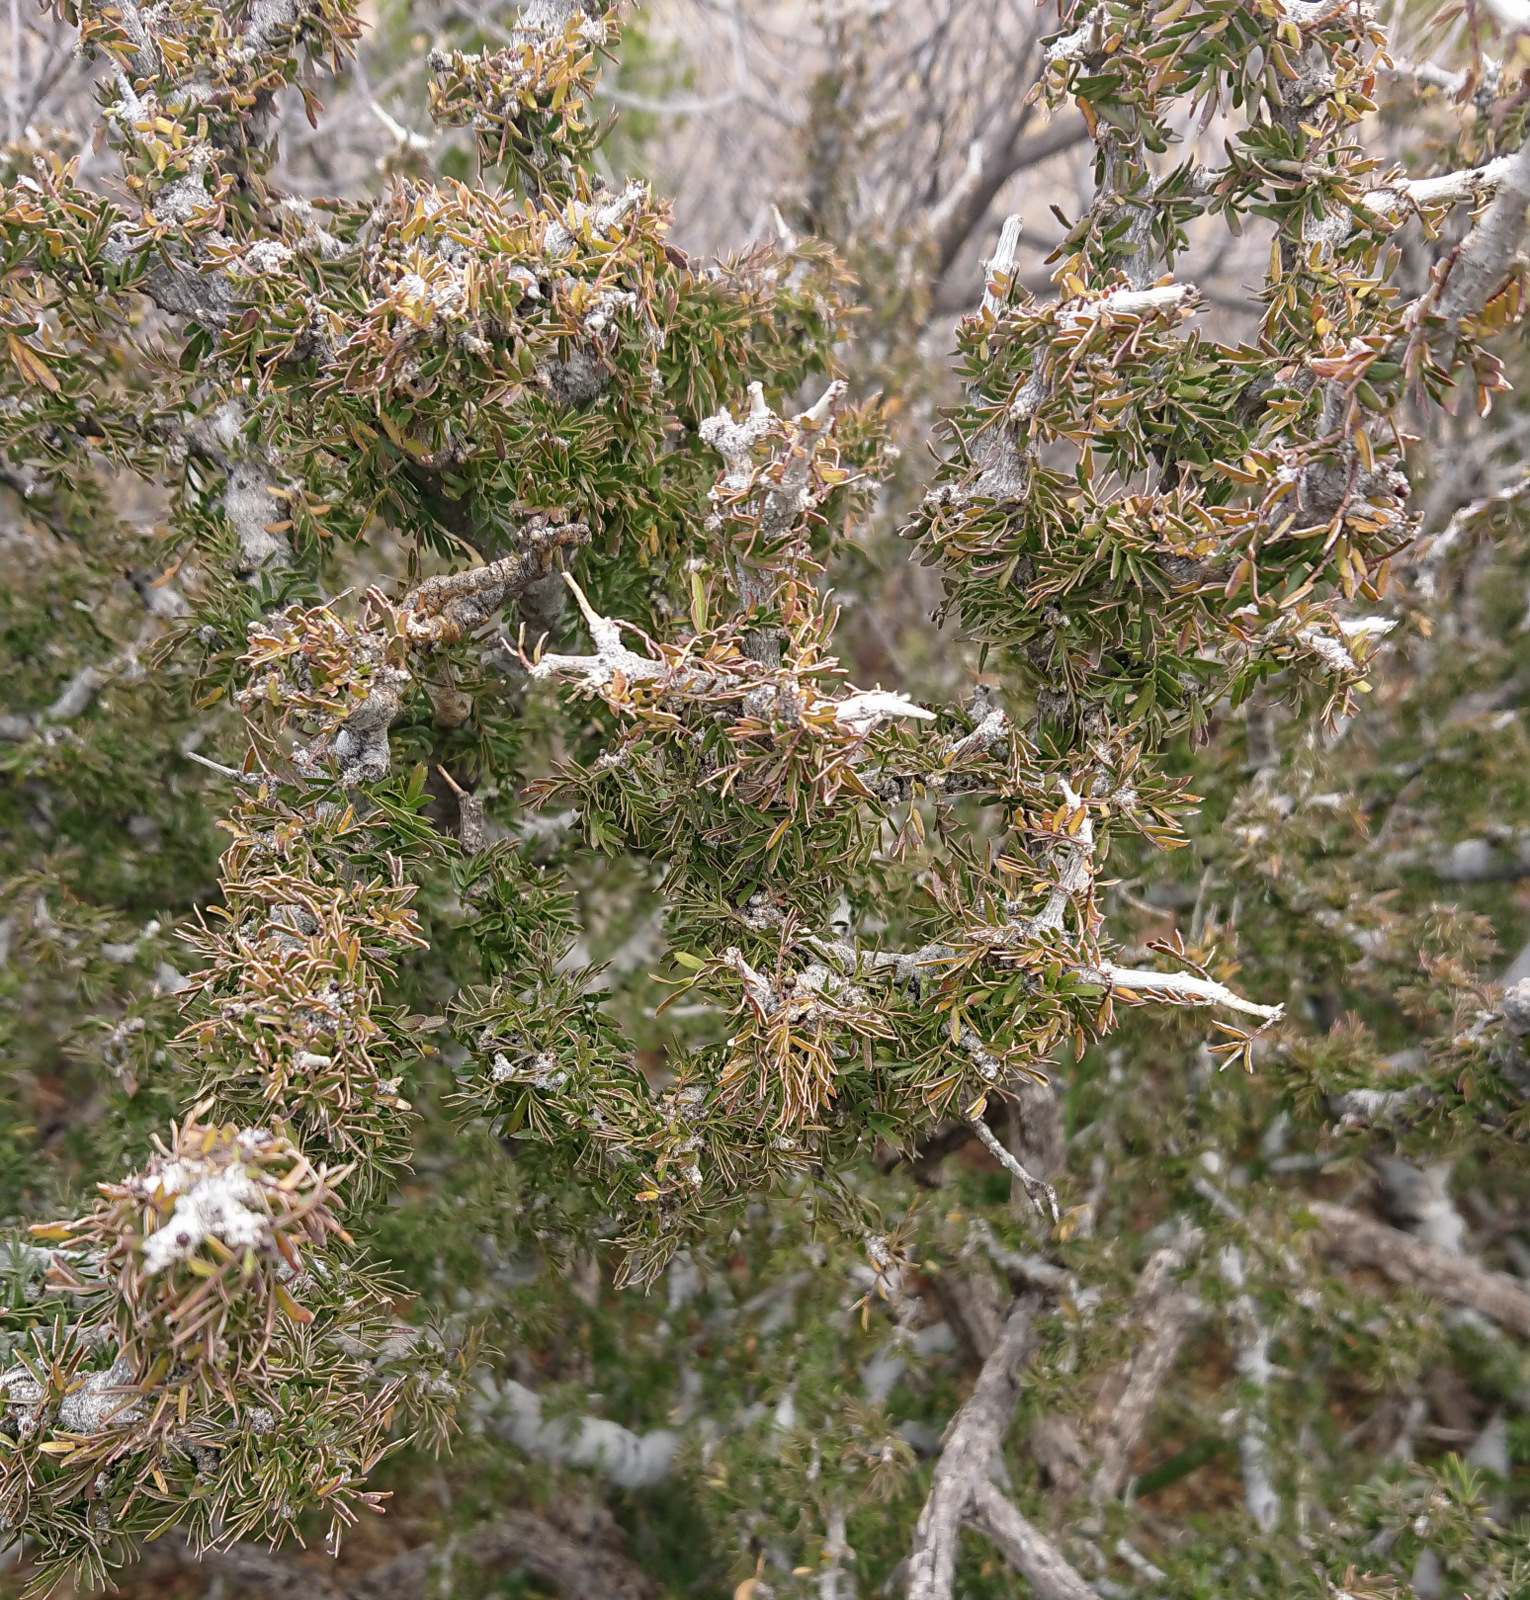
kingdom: Plantae
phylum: Tracheophyta
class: Magnoliopsida
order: Zygophyllales
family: Zygophyllaceae
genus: Porlieria
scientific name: Porlieria angustifolia
